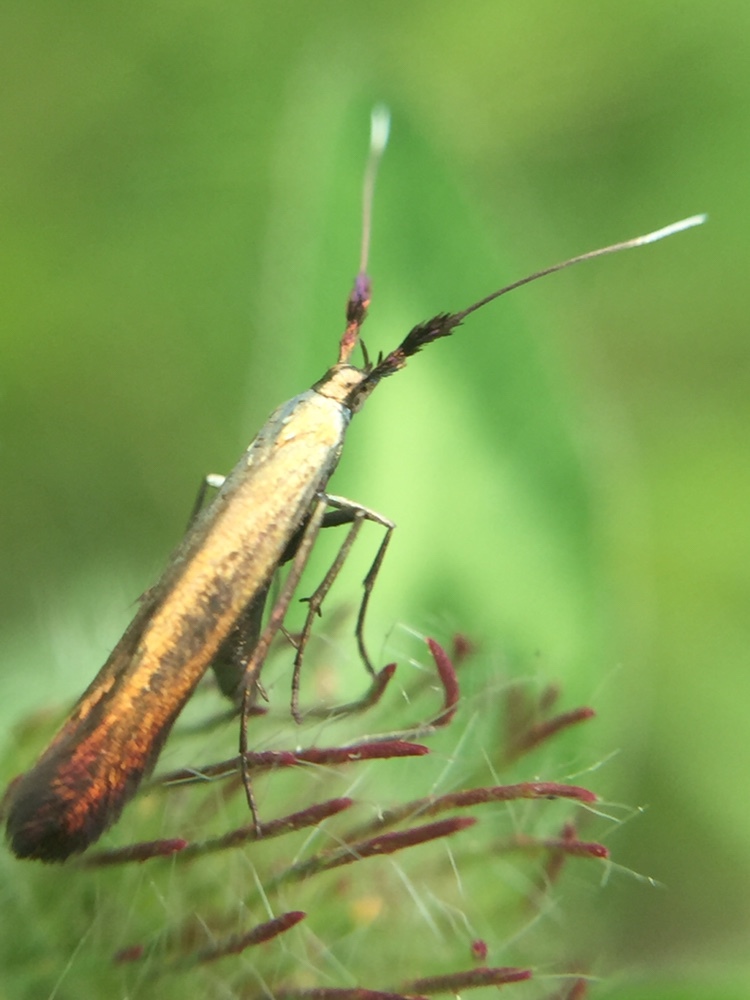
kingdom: Animalia
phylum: Arthropoda
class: Insecta
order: Lepidoptera
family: Coleophoridae
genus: Coleophora
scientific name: Coleophora deauratella
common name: Red-clover case-bearer
